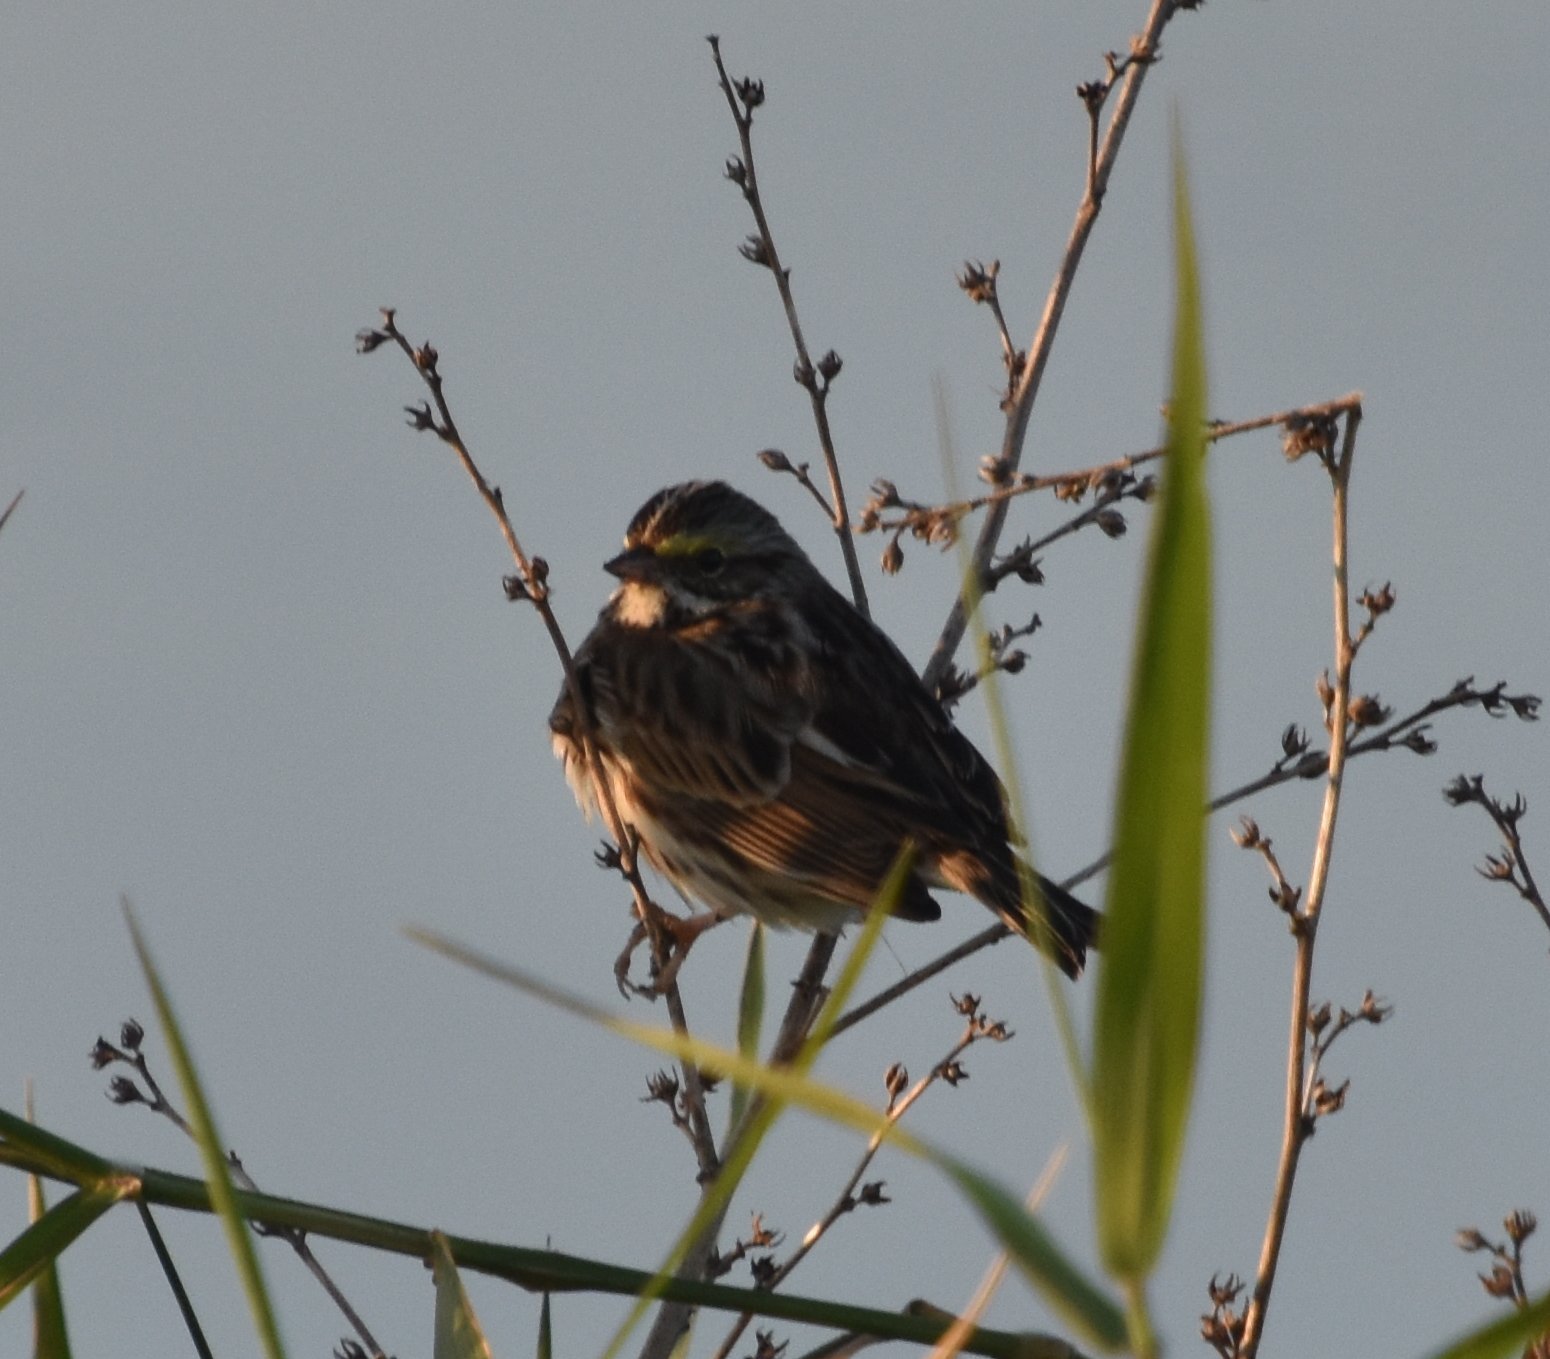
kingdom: Animalia
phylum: Chordata
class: Aves
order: Passeriformes
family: Passerellidae
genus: Passerculus
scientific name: Passerculus sandwichensis
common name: Savannah sparrow
